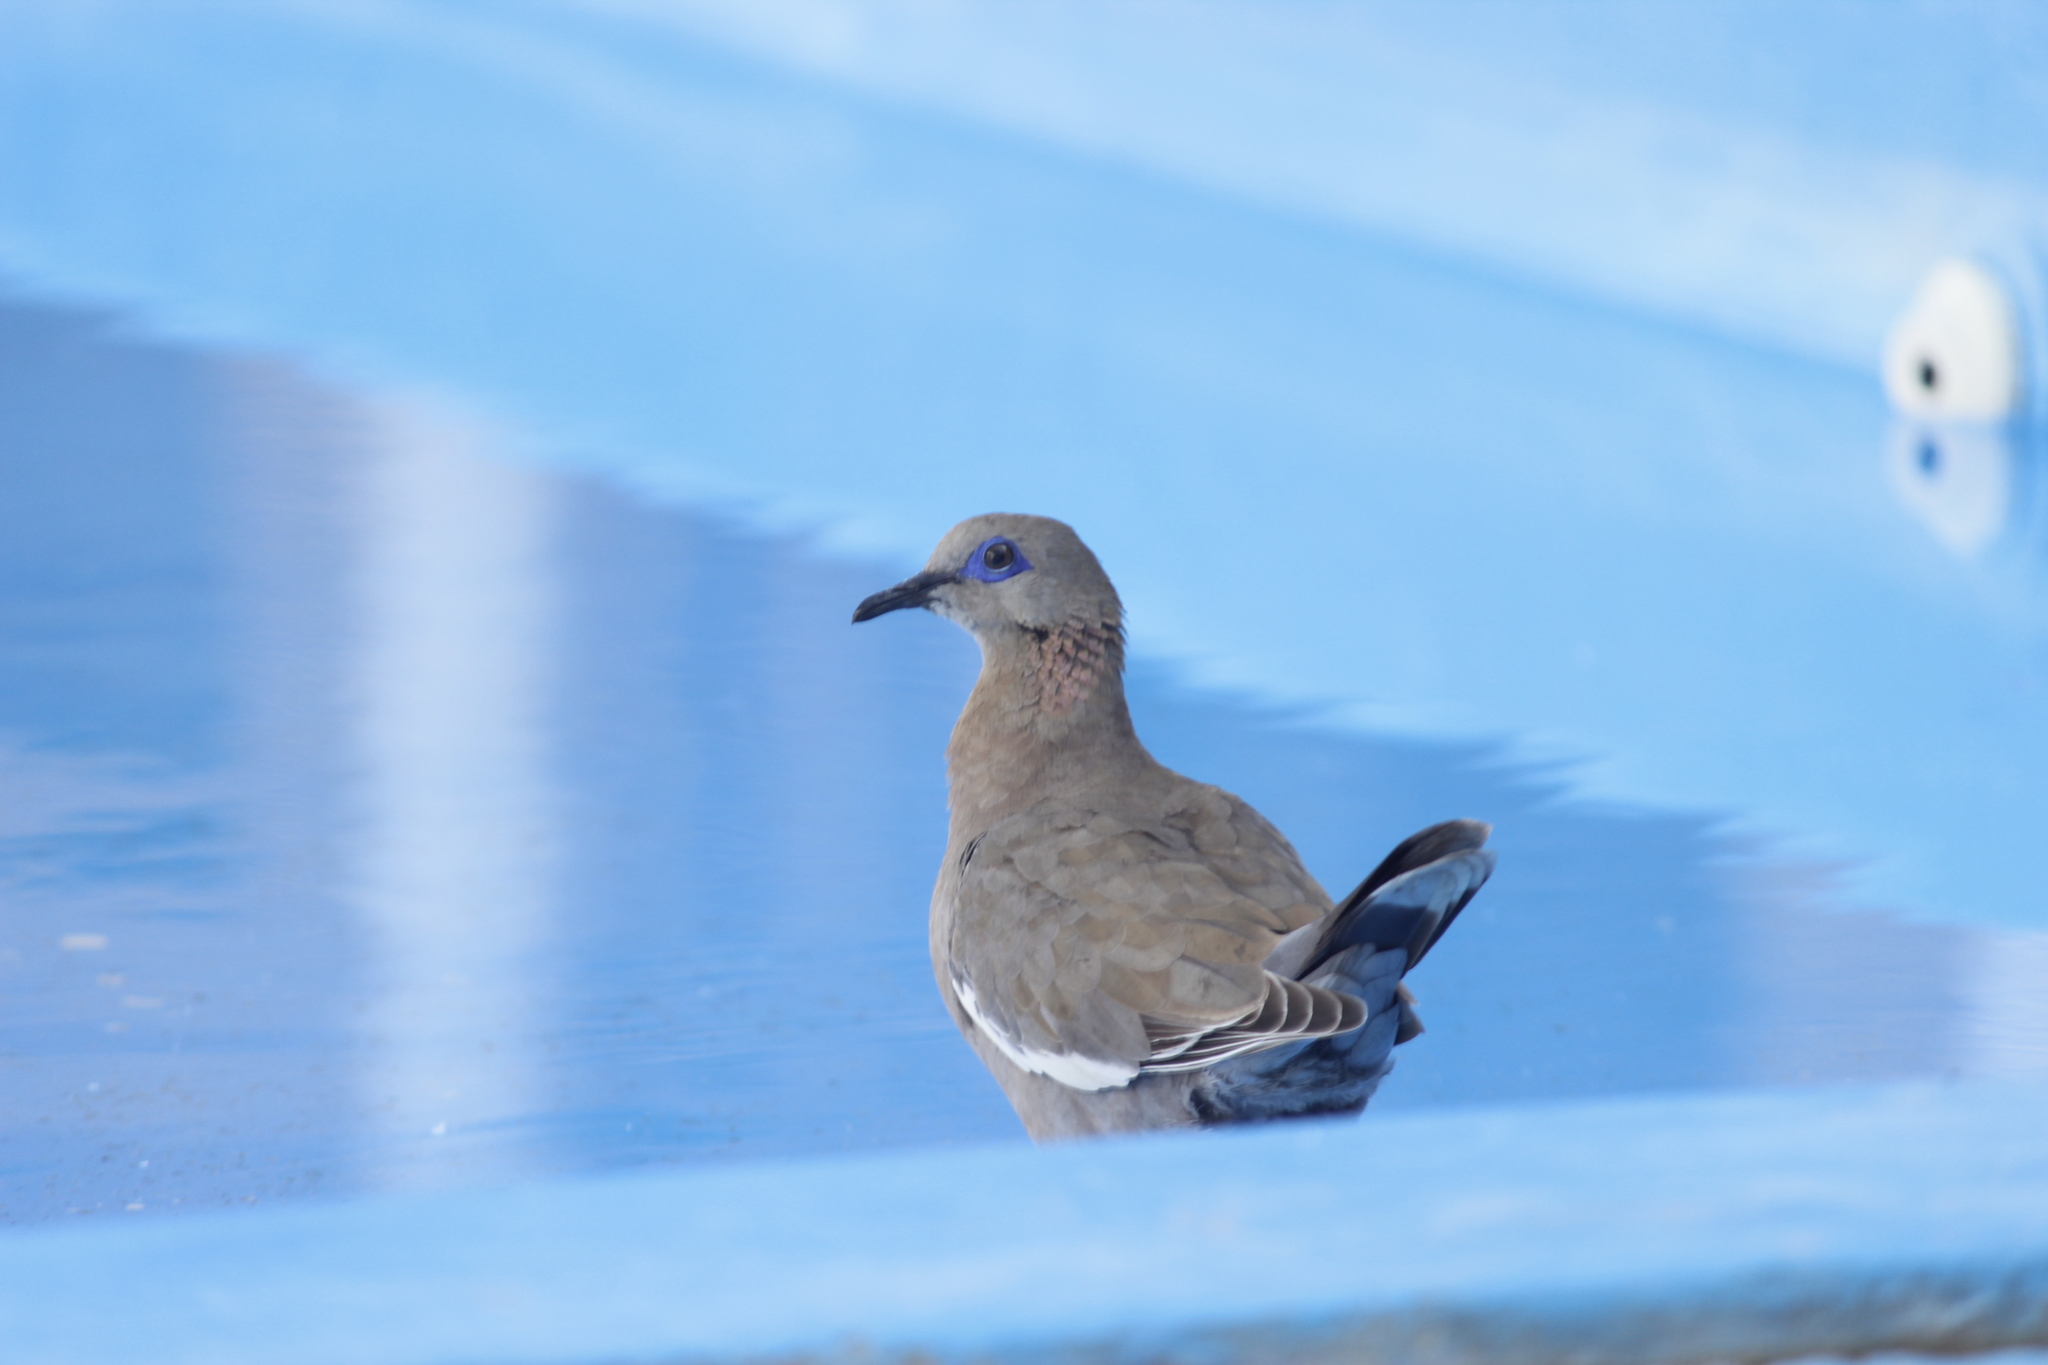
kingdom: Animalia
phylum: Chordata
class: Aves
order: Columbiformes
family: Columbidae
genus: Zenaida
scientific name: Zenaida meloda
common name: West peruvian dove
